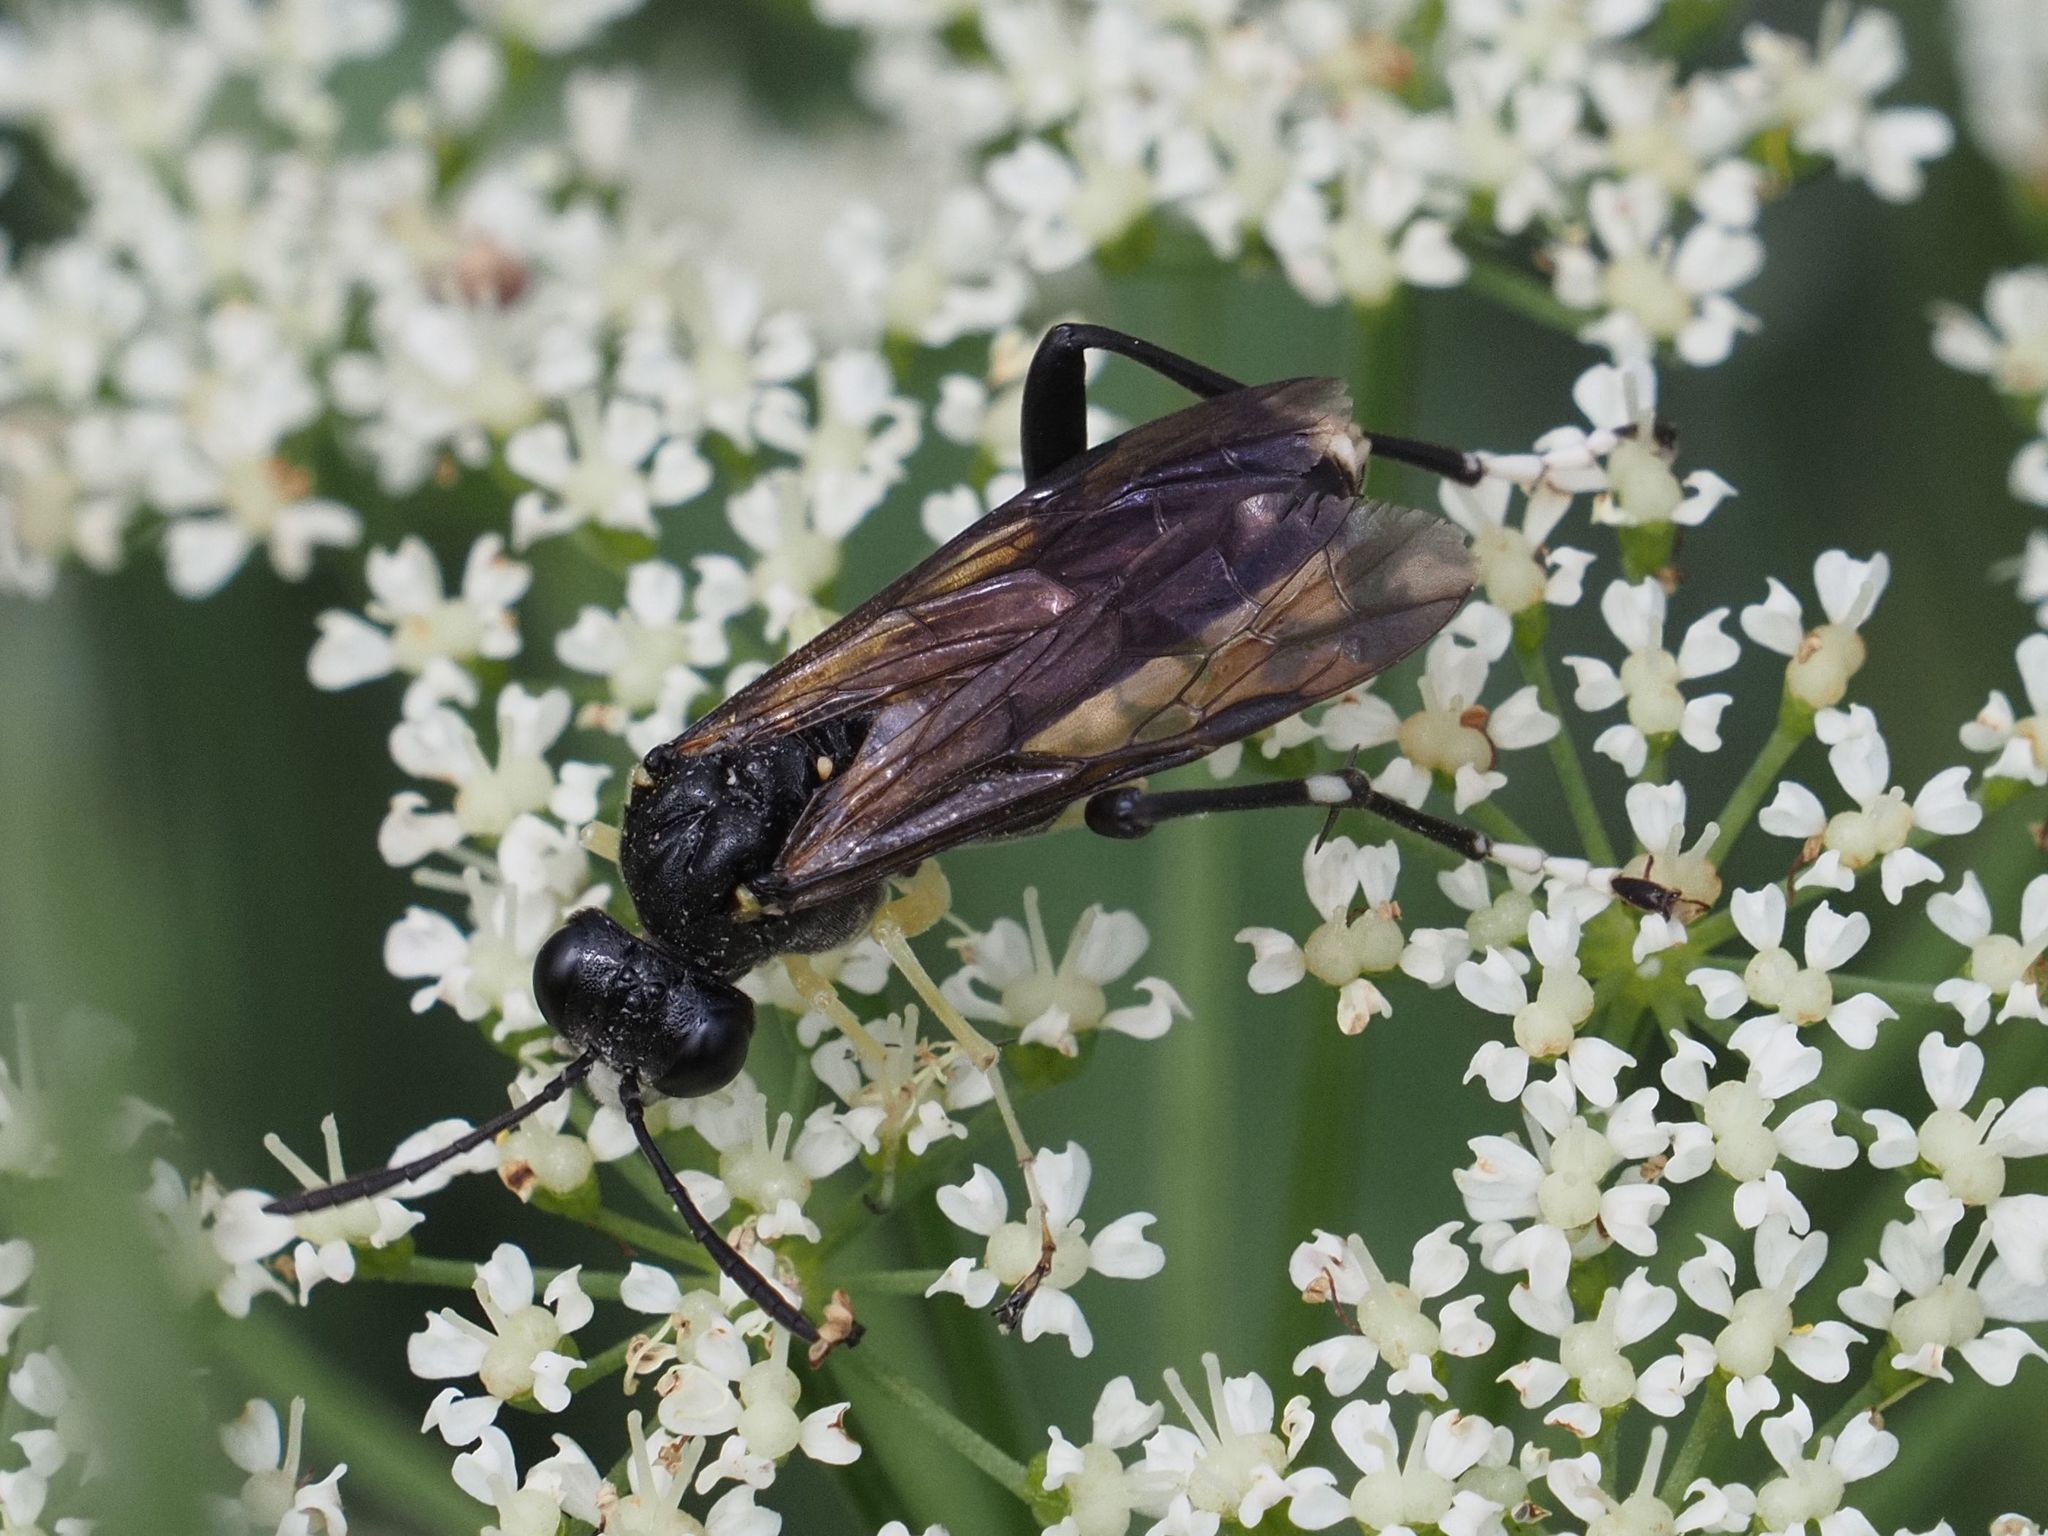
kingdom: Animalia
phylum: Arthropoda
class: Insecta
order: Hymenoptera
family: Tenthredinidae
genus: Macrophya
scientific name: Macrophya montana
